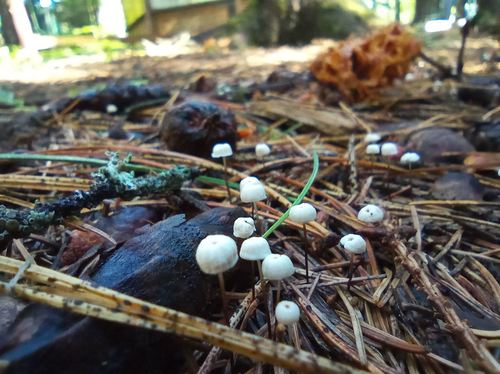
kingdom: Fungi
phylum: Basidiomycota
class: Agaricomycetes
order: Agaricales
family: Marasmiaceae
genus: Marasmius
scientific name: Marasmius rotula
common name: Collared parachute
